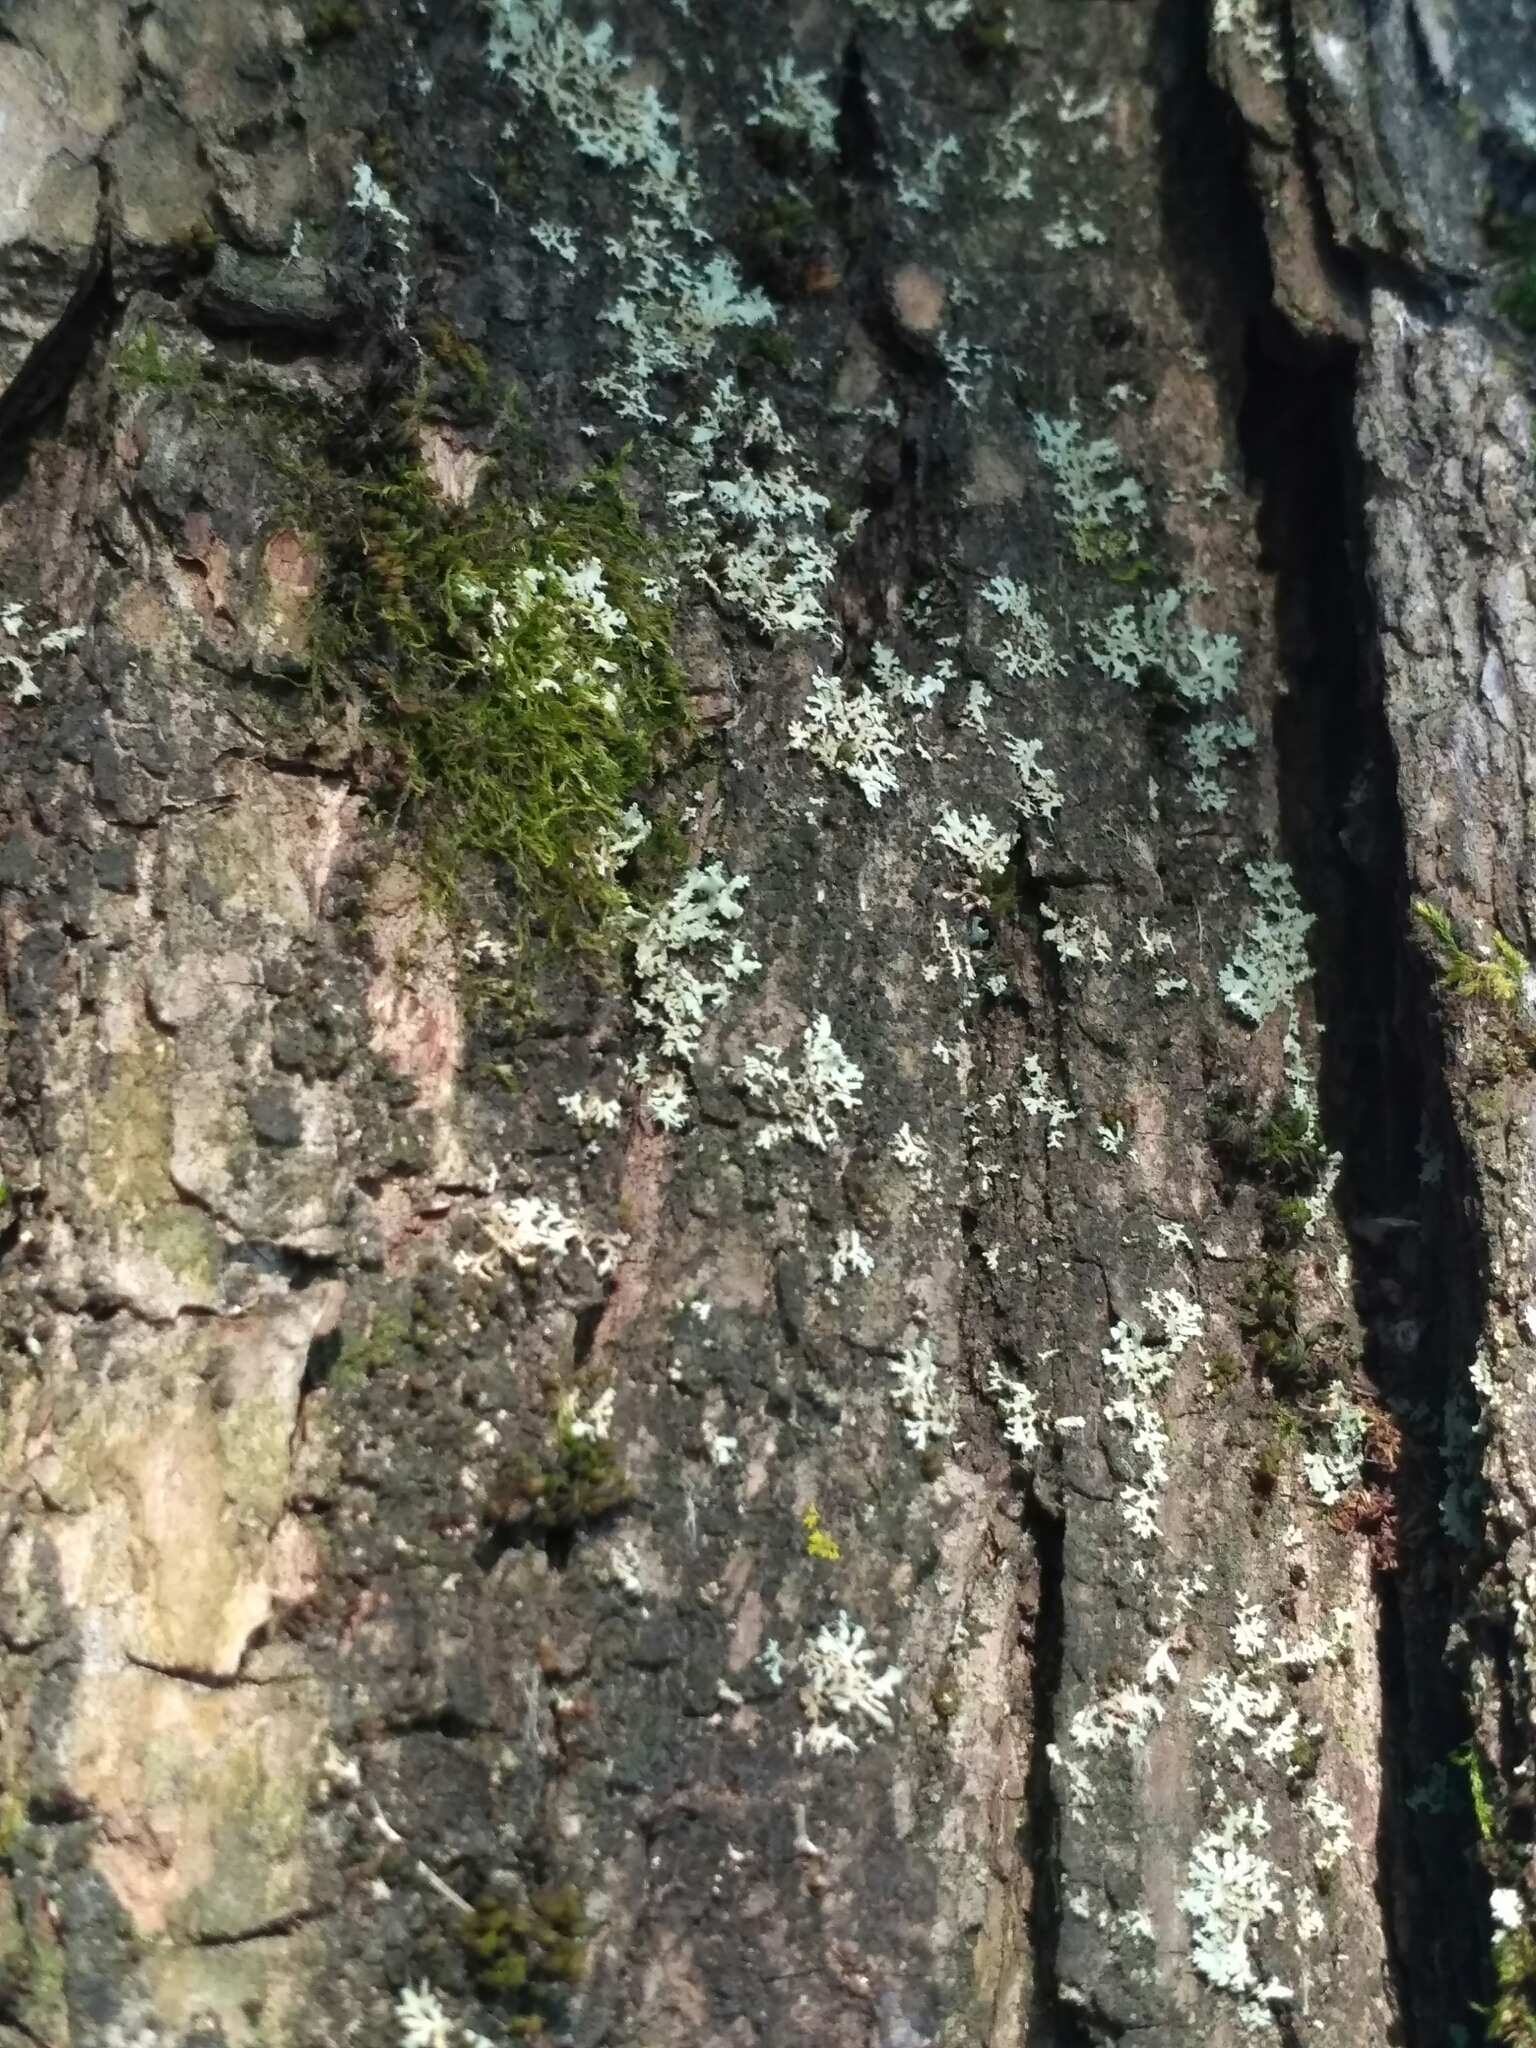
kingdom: Fungi
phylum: Ascomycota
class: Lecanoromycetes
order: Caliciales
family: Physciaceae
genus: Physcia
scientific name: Physcia tenella
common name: Fringed rosette lichen
